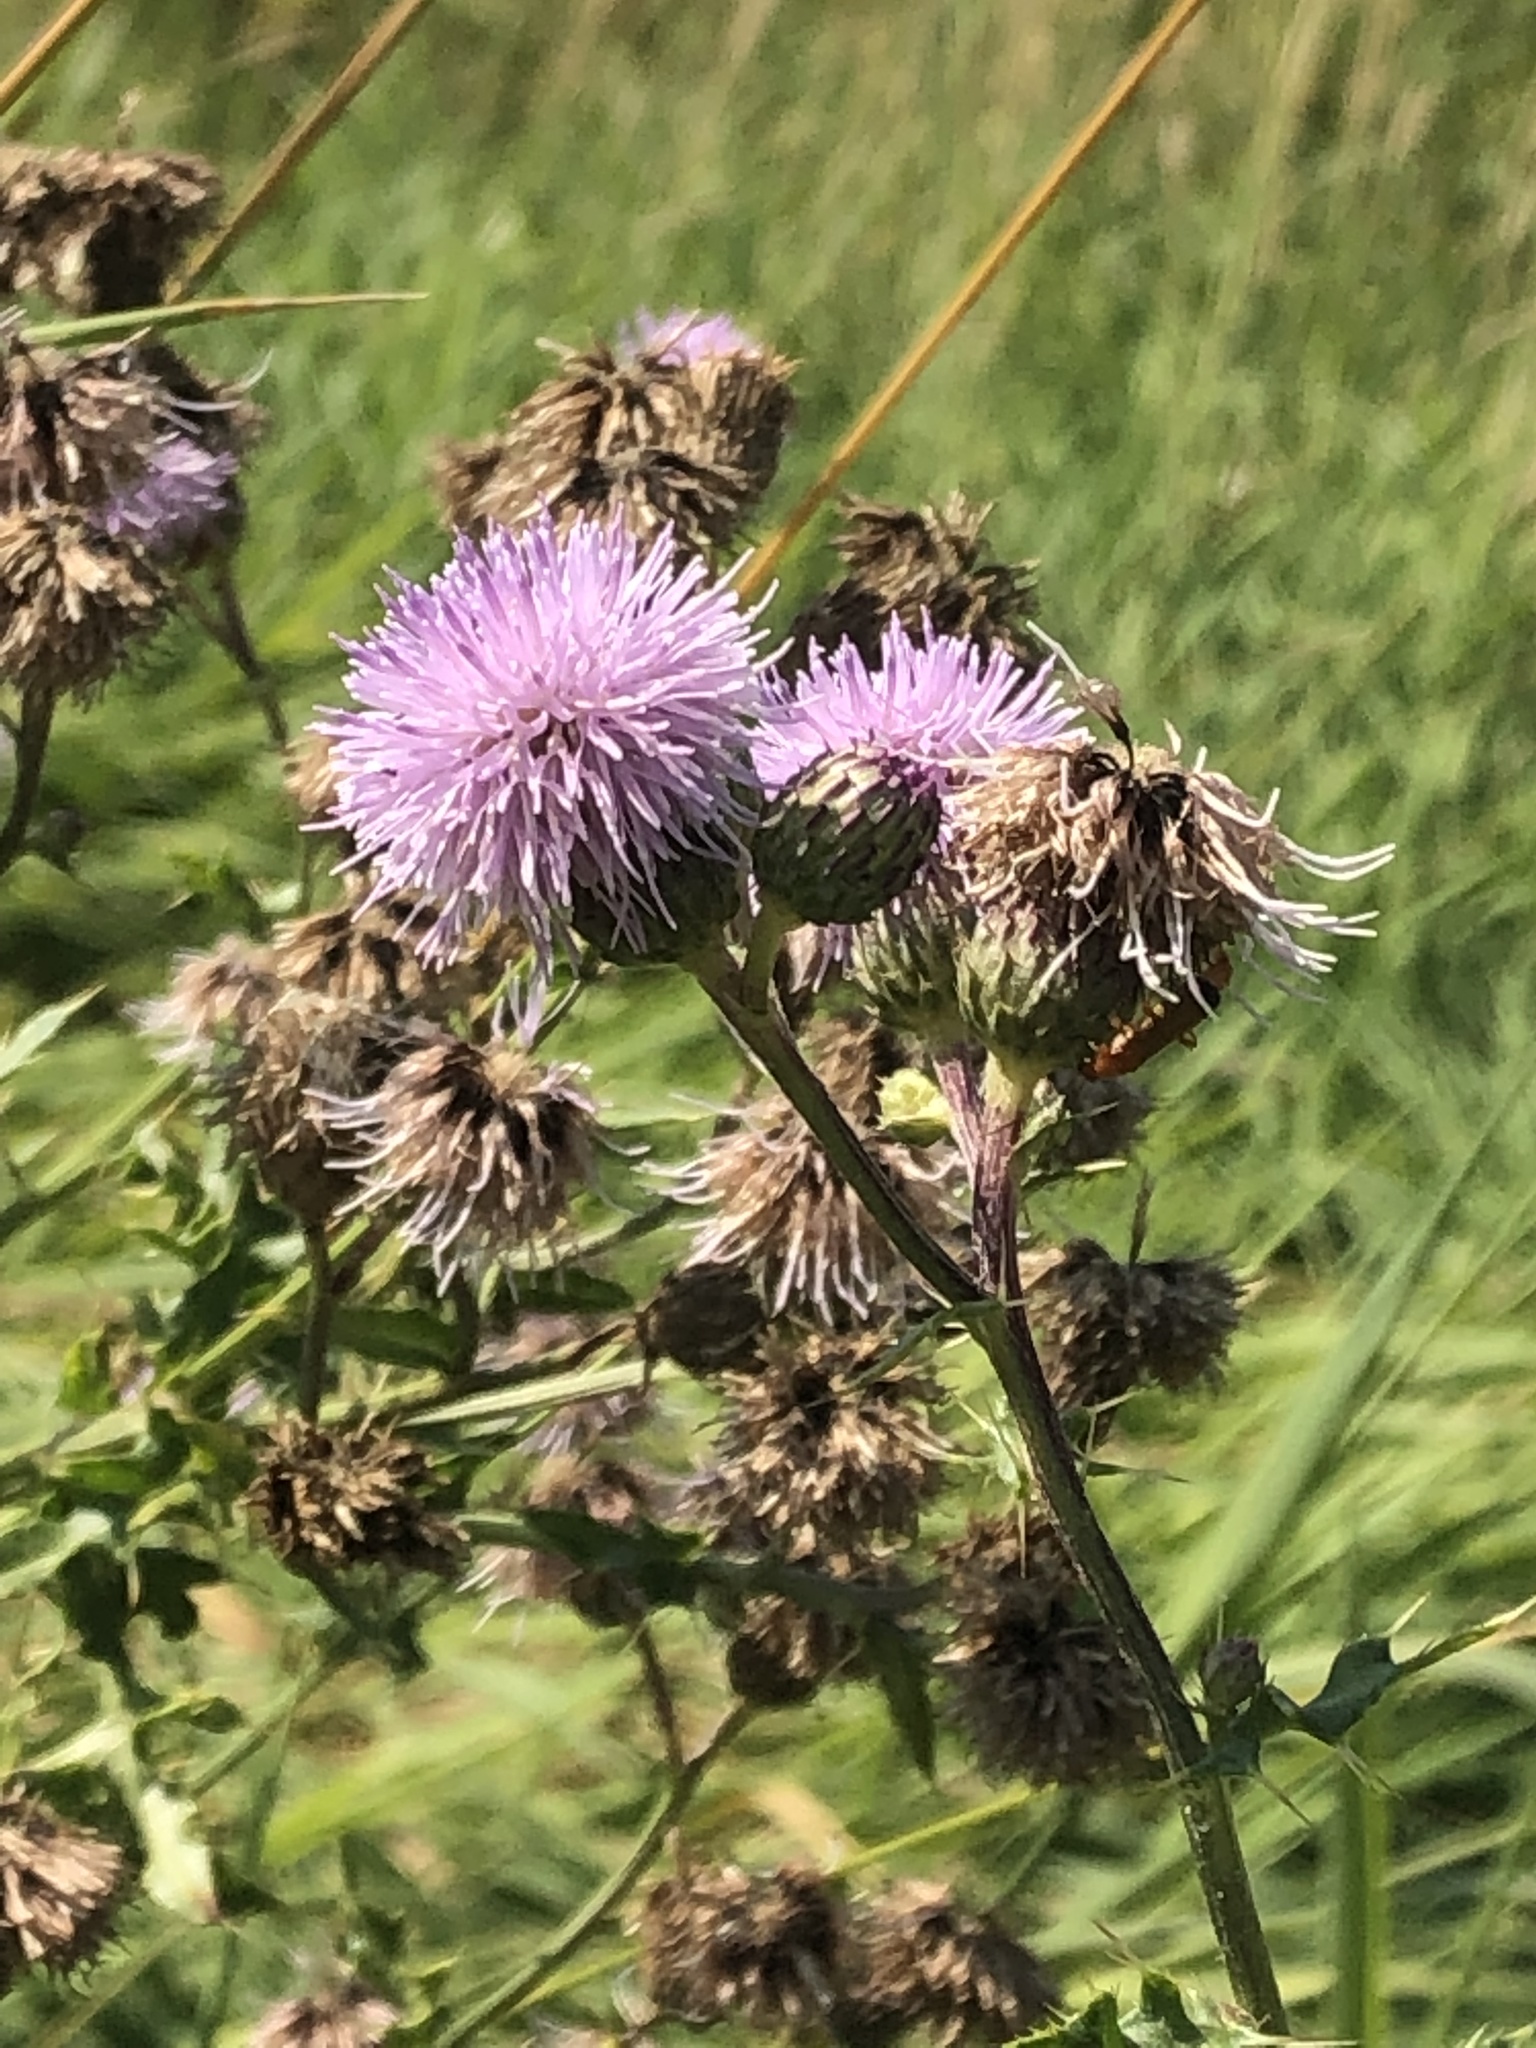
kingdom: Plantae
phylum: Tracheophyta
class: Magnoliopsida
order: Asterales
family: Asteraceae
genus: Cirsium
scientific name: Cirsium arvense
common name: Creeping thistle
